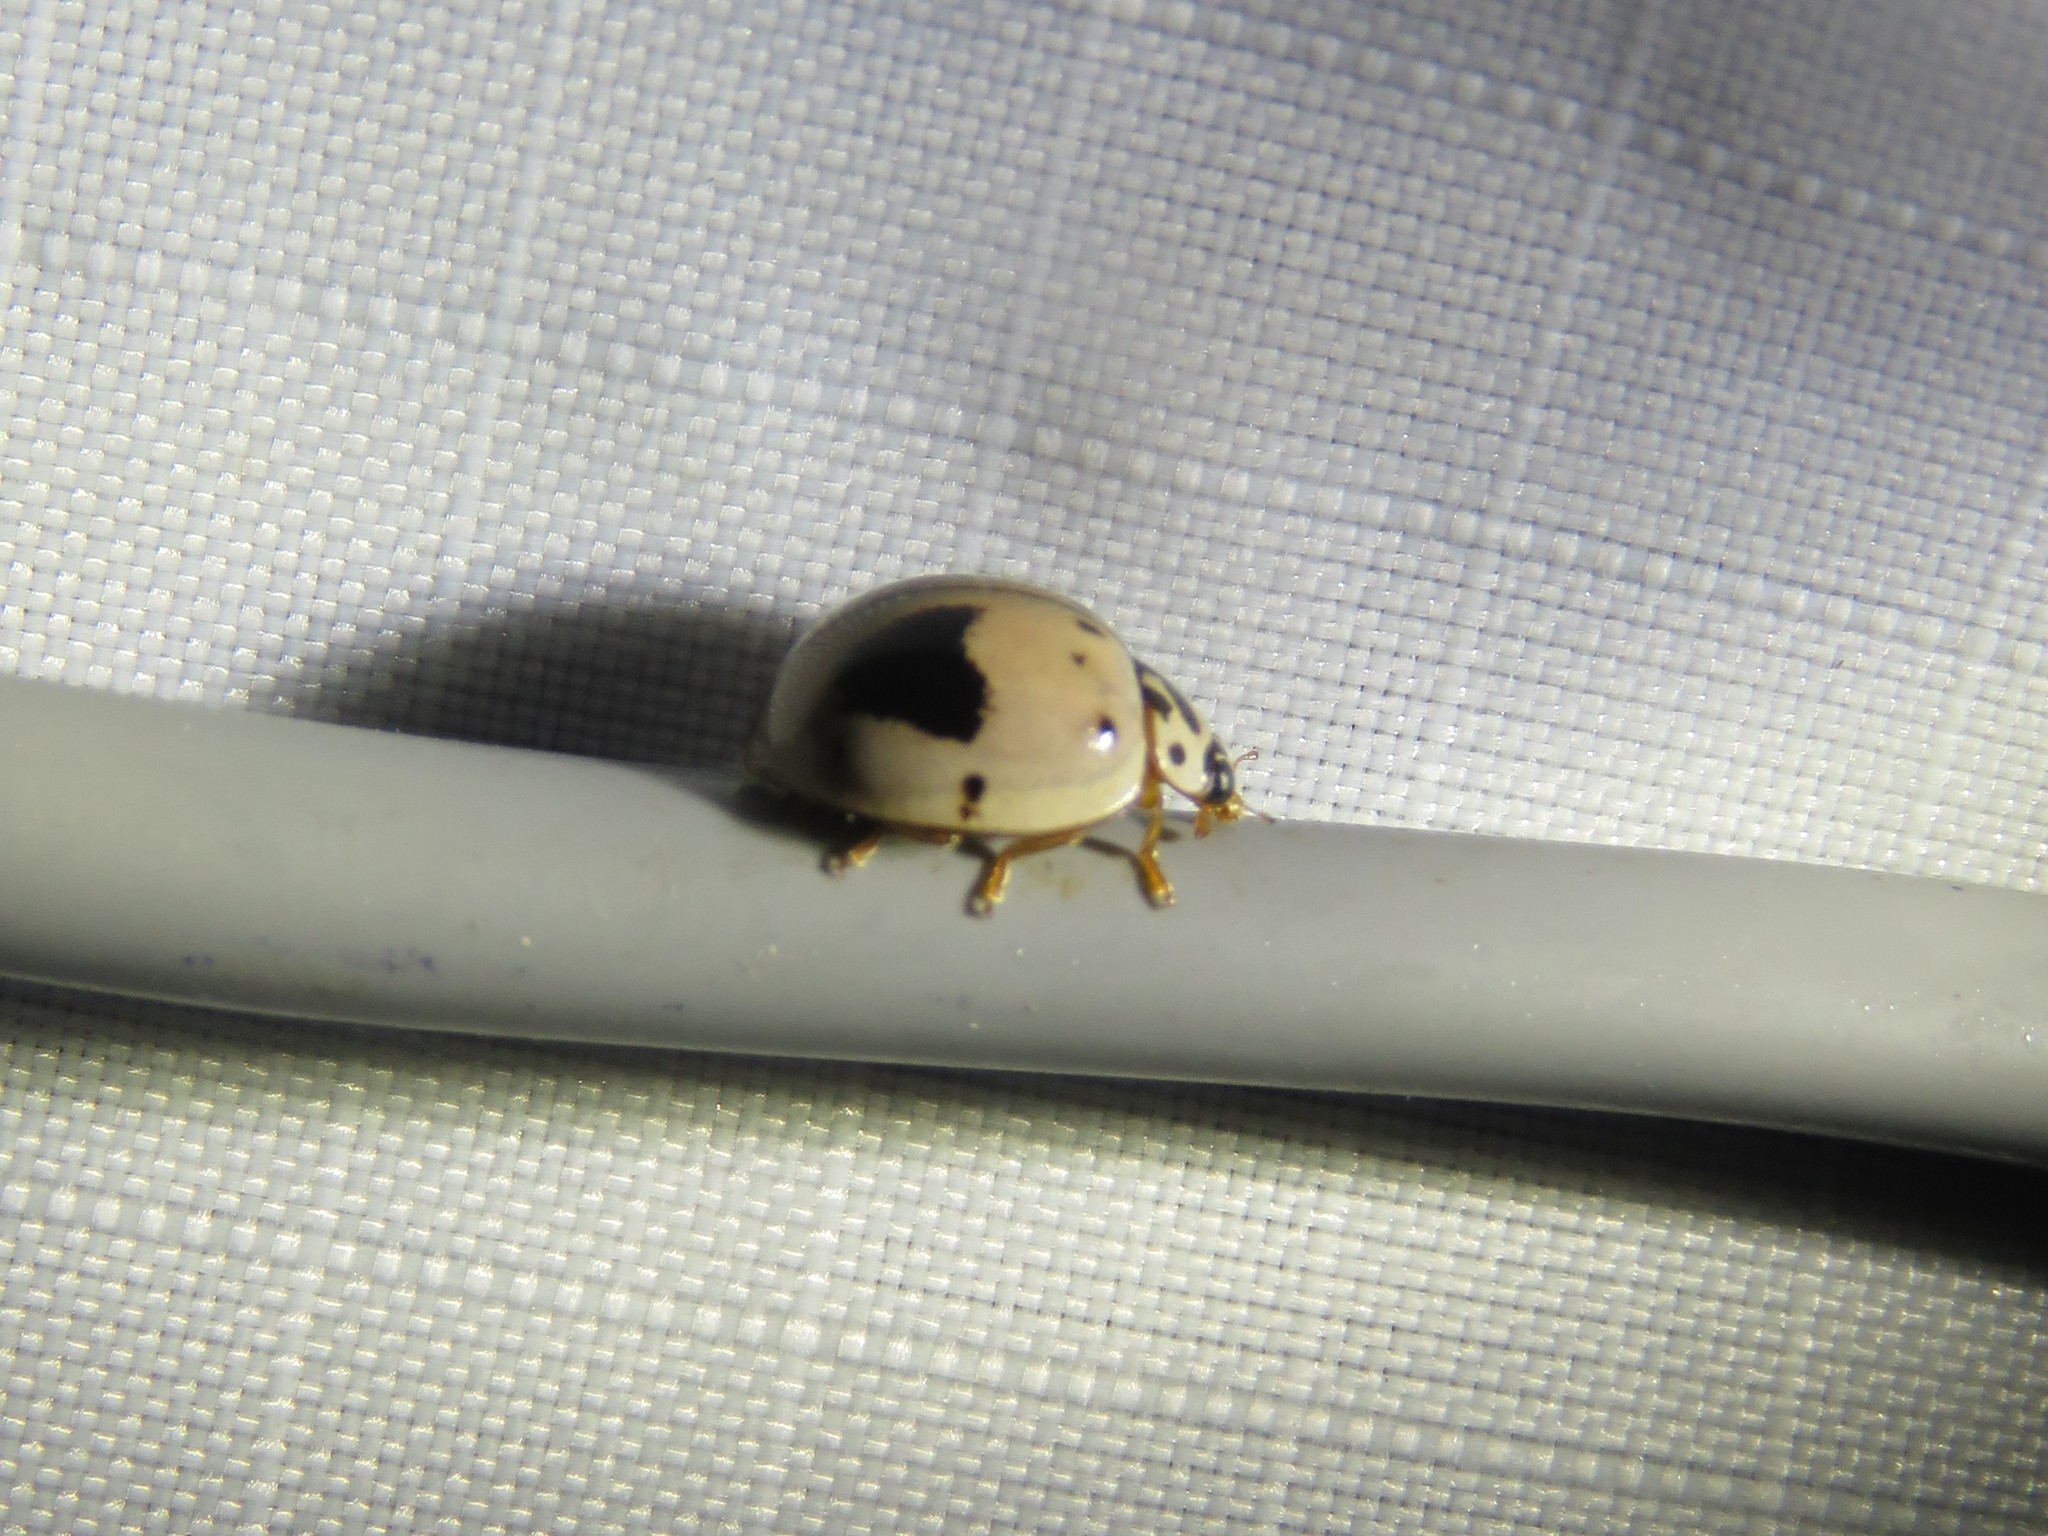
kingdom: Animalia
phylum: Arthropoda
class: Insecta
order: Coleoptera
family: Coccinellidae
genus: Olla
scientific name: Olla v-nigrum
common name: Ashy gray lady beetle
